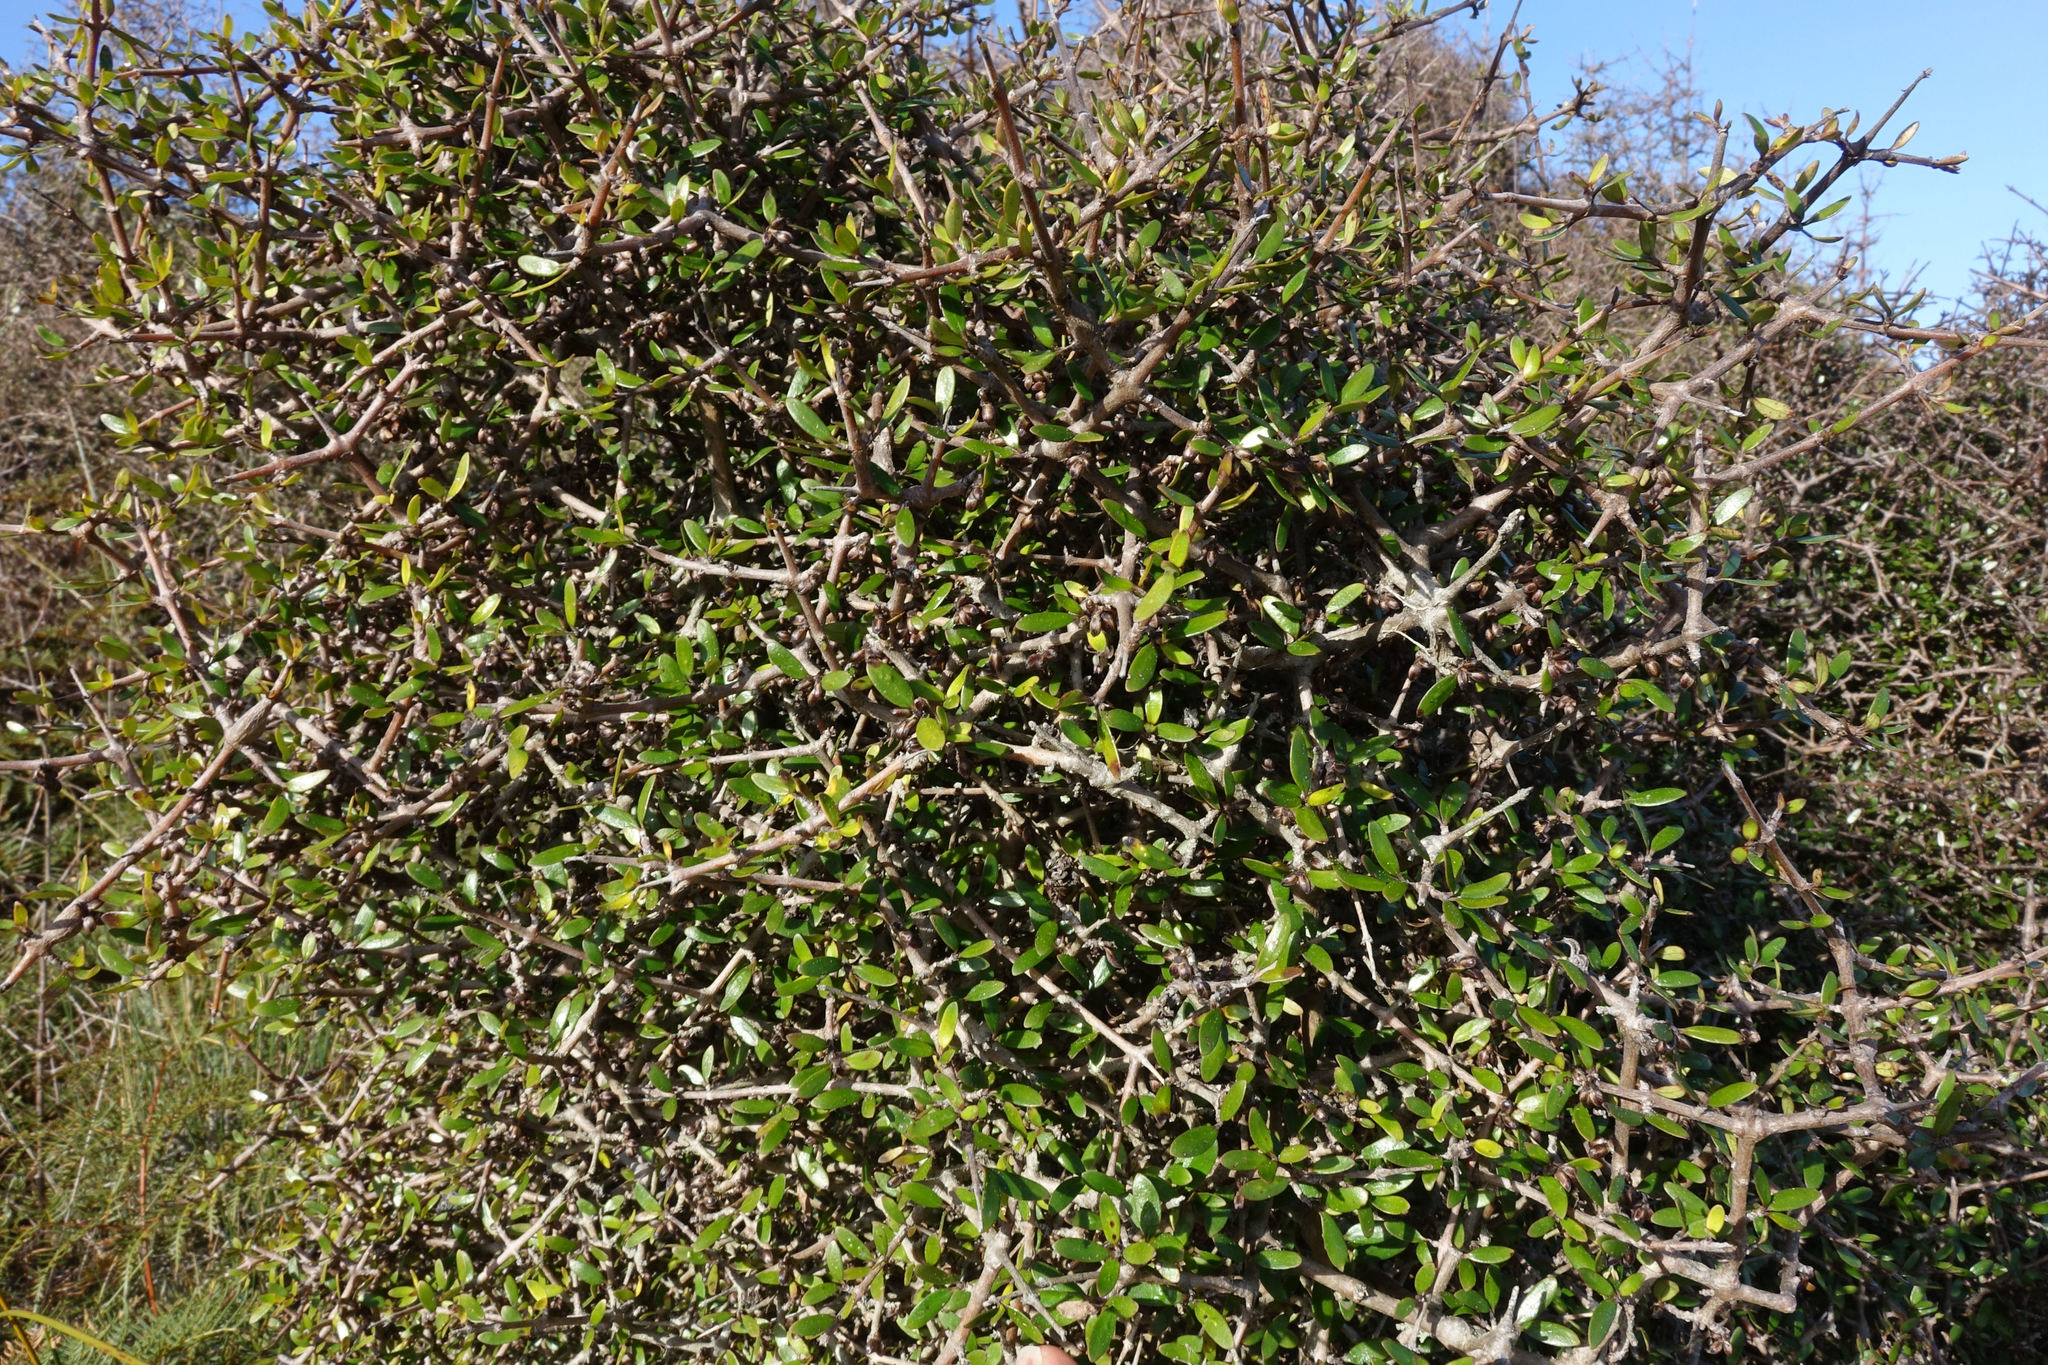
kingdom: Plantae
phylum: Tracheophyta
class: Magnoliopsida
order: Gentianales
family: Rubiaceae
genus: Coprosma
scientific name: Coprosma propinqua
